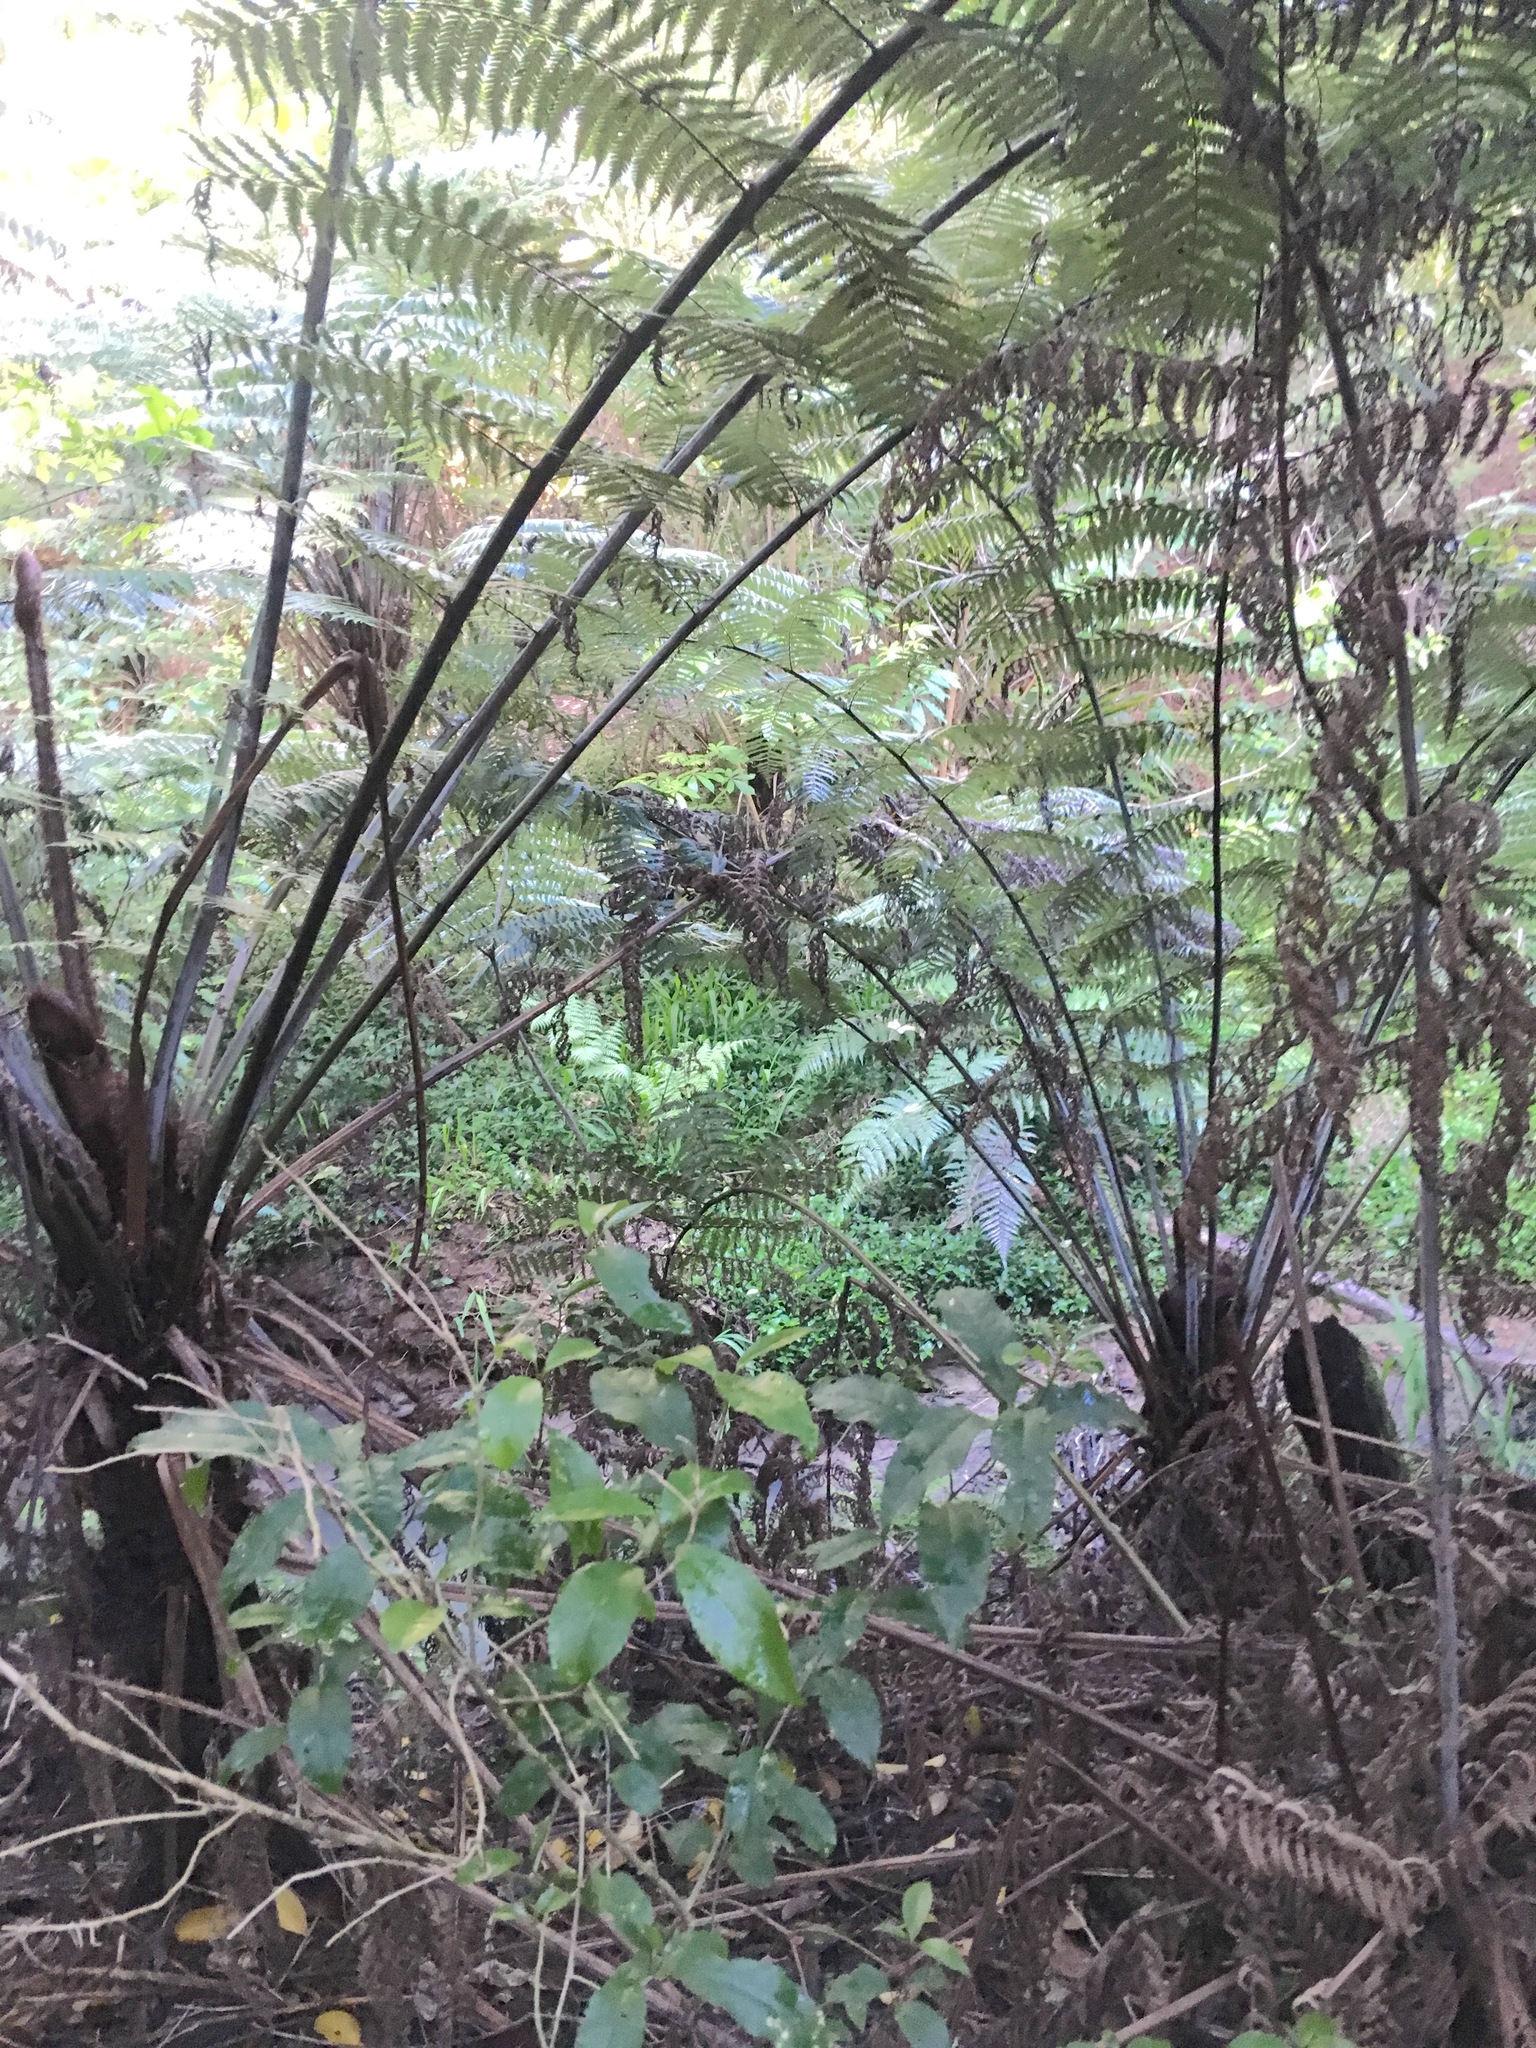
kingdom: Plantae
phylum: Tracheophyta
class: Polypodiopsida
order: Cyatheales
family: Cyatheaceae
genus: Alsophila
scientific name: Alsophila dealbata
